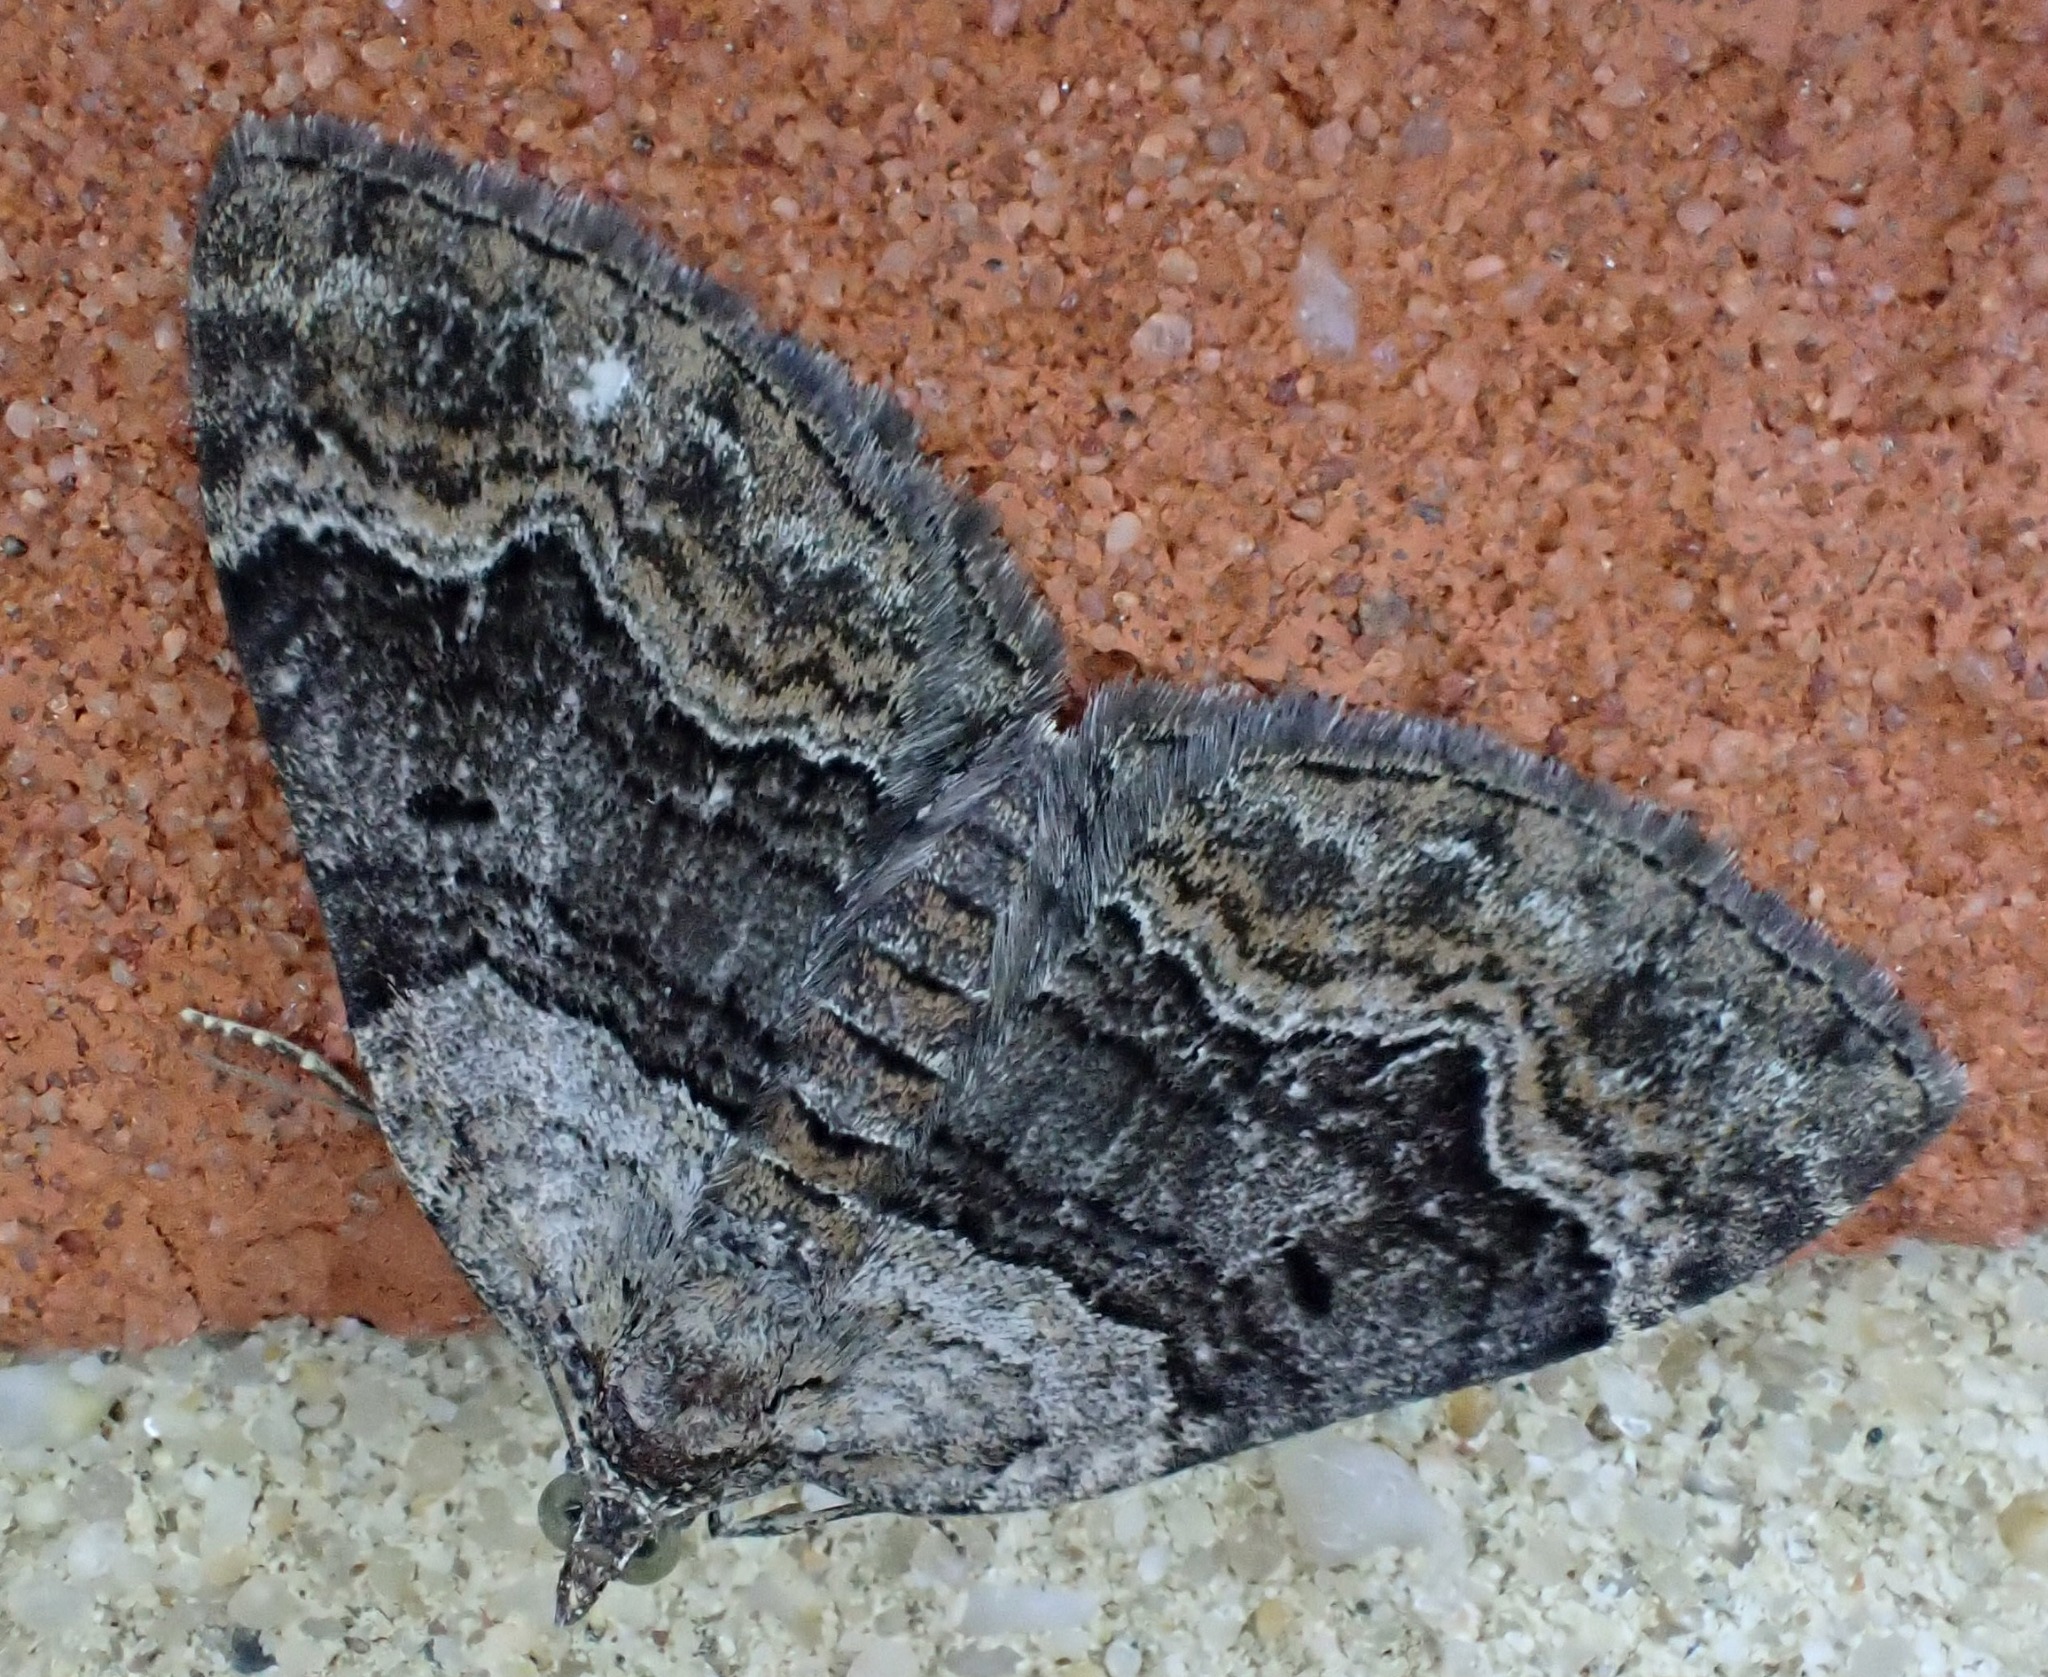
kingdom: Animalia
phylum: Arthropoda
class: Insecta
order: Lepidoptera
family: Geometridae
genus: Xanthorhoe
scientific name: Xanthorhoe quadrifasiata
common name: Large twin-spot carpet
